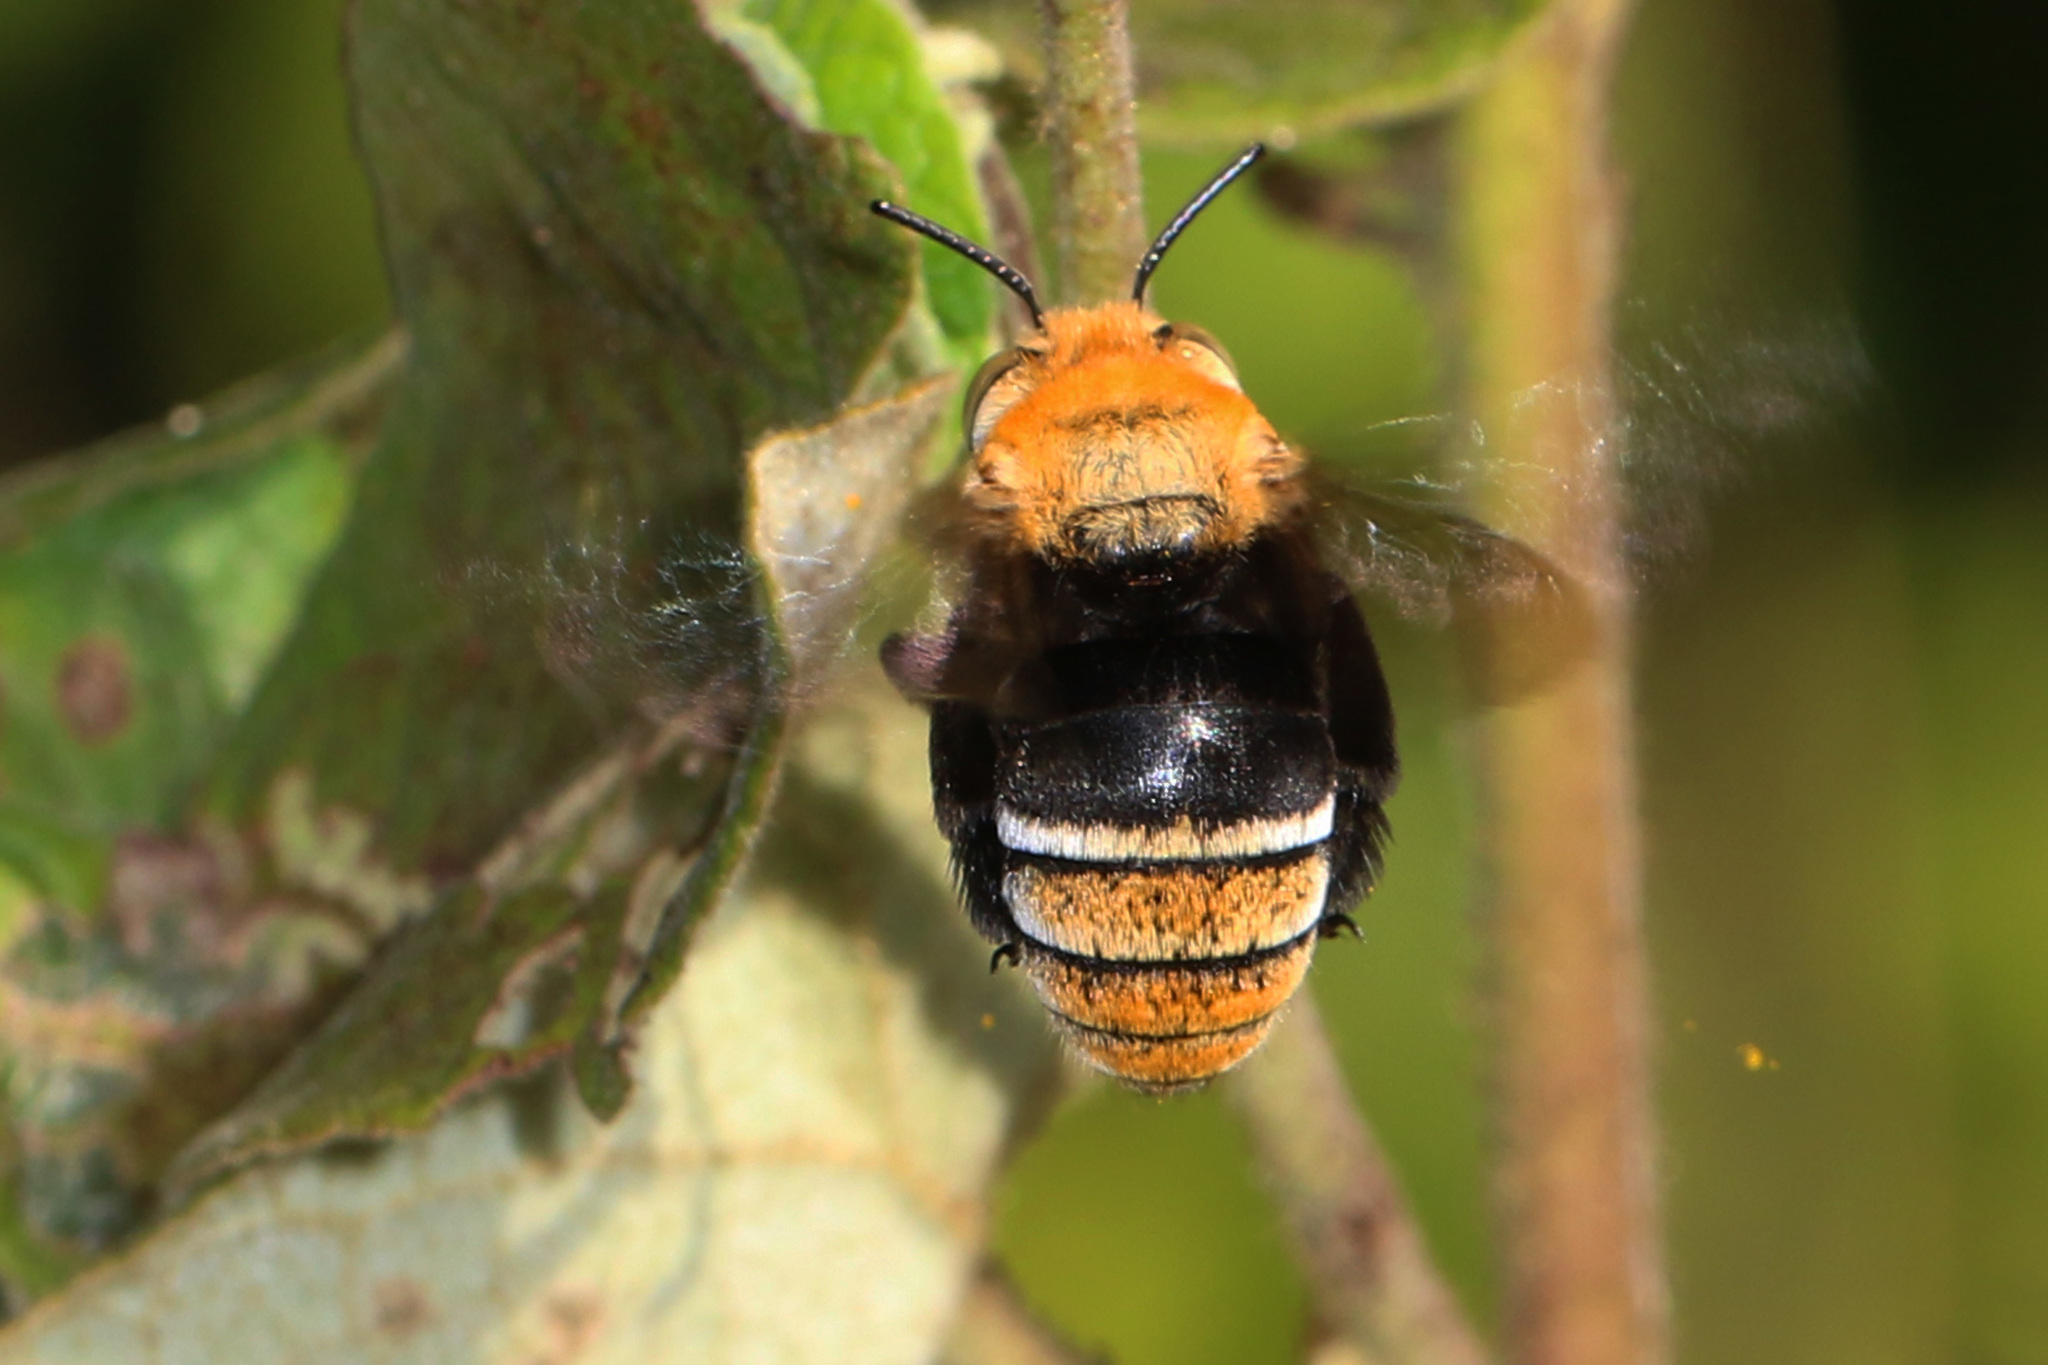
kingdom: Animalia
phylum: Arthropoda
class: Insecta
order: Hymenoptera
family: Apidae
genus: Amegilla
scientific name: Amegilla atrocincta
